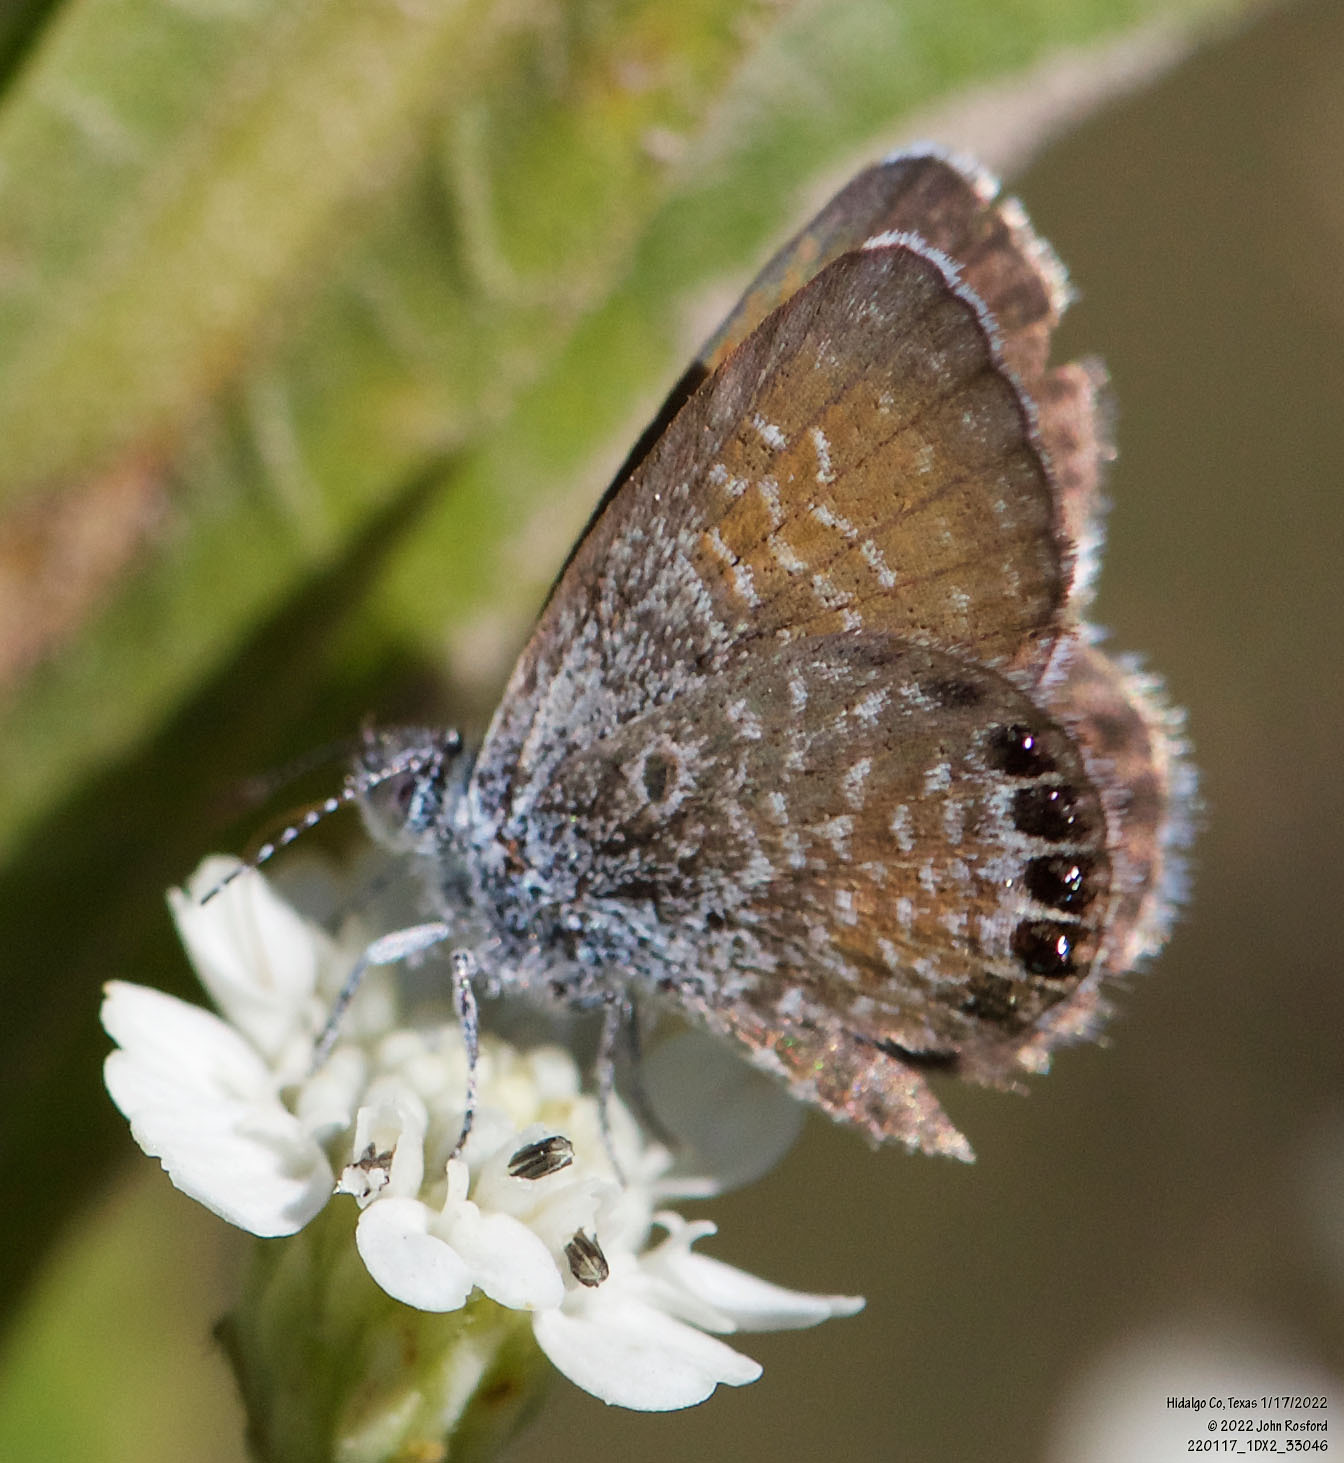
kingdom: Animalia
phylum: Arthropoda
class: Insecta
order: Lepidoptera
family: Lycaenidae
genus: Brephidium
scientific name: Brephidium exilis
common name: Pygmy blue
